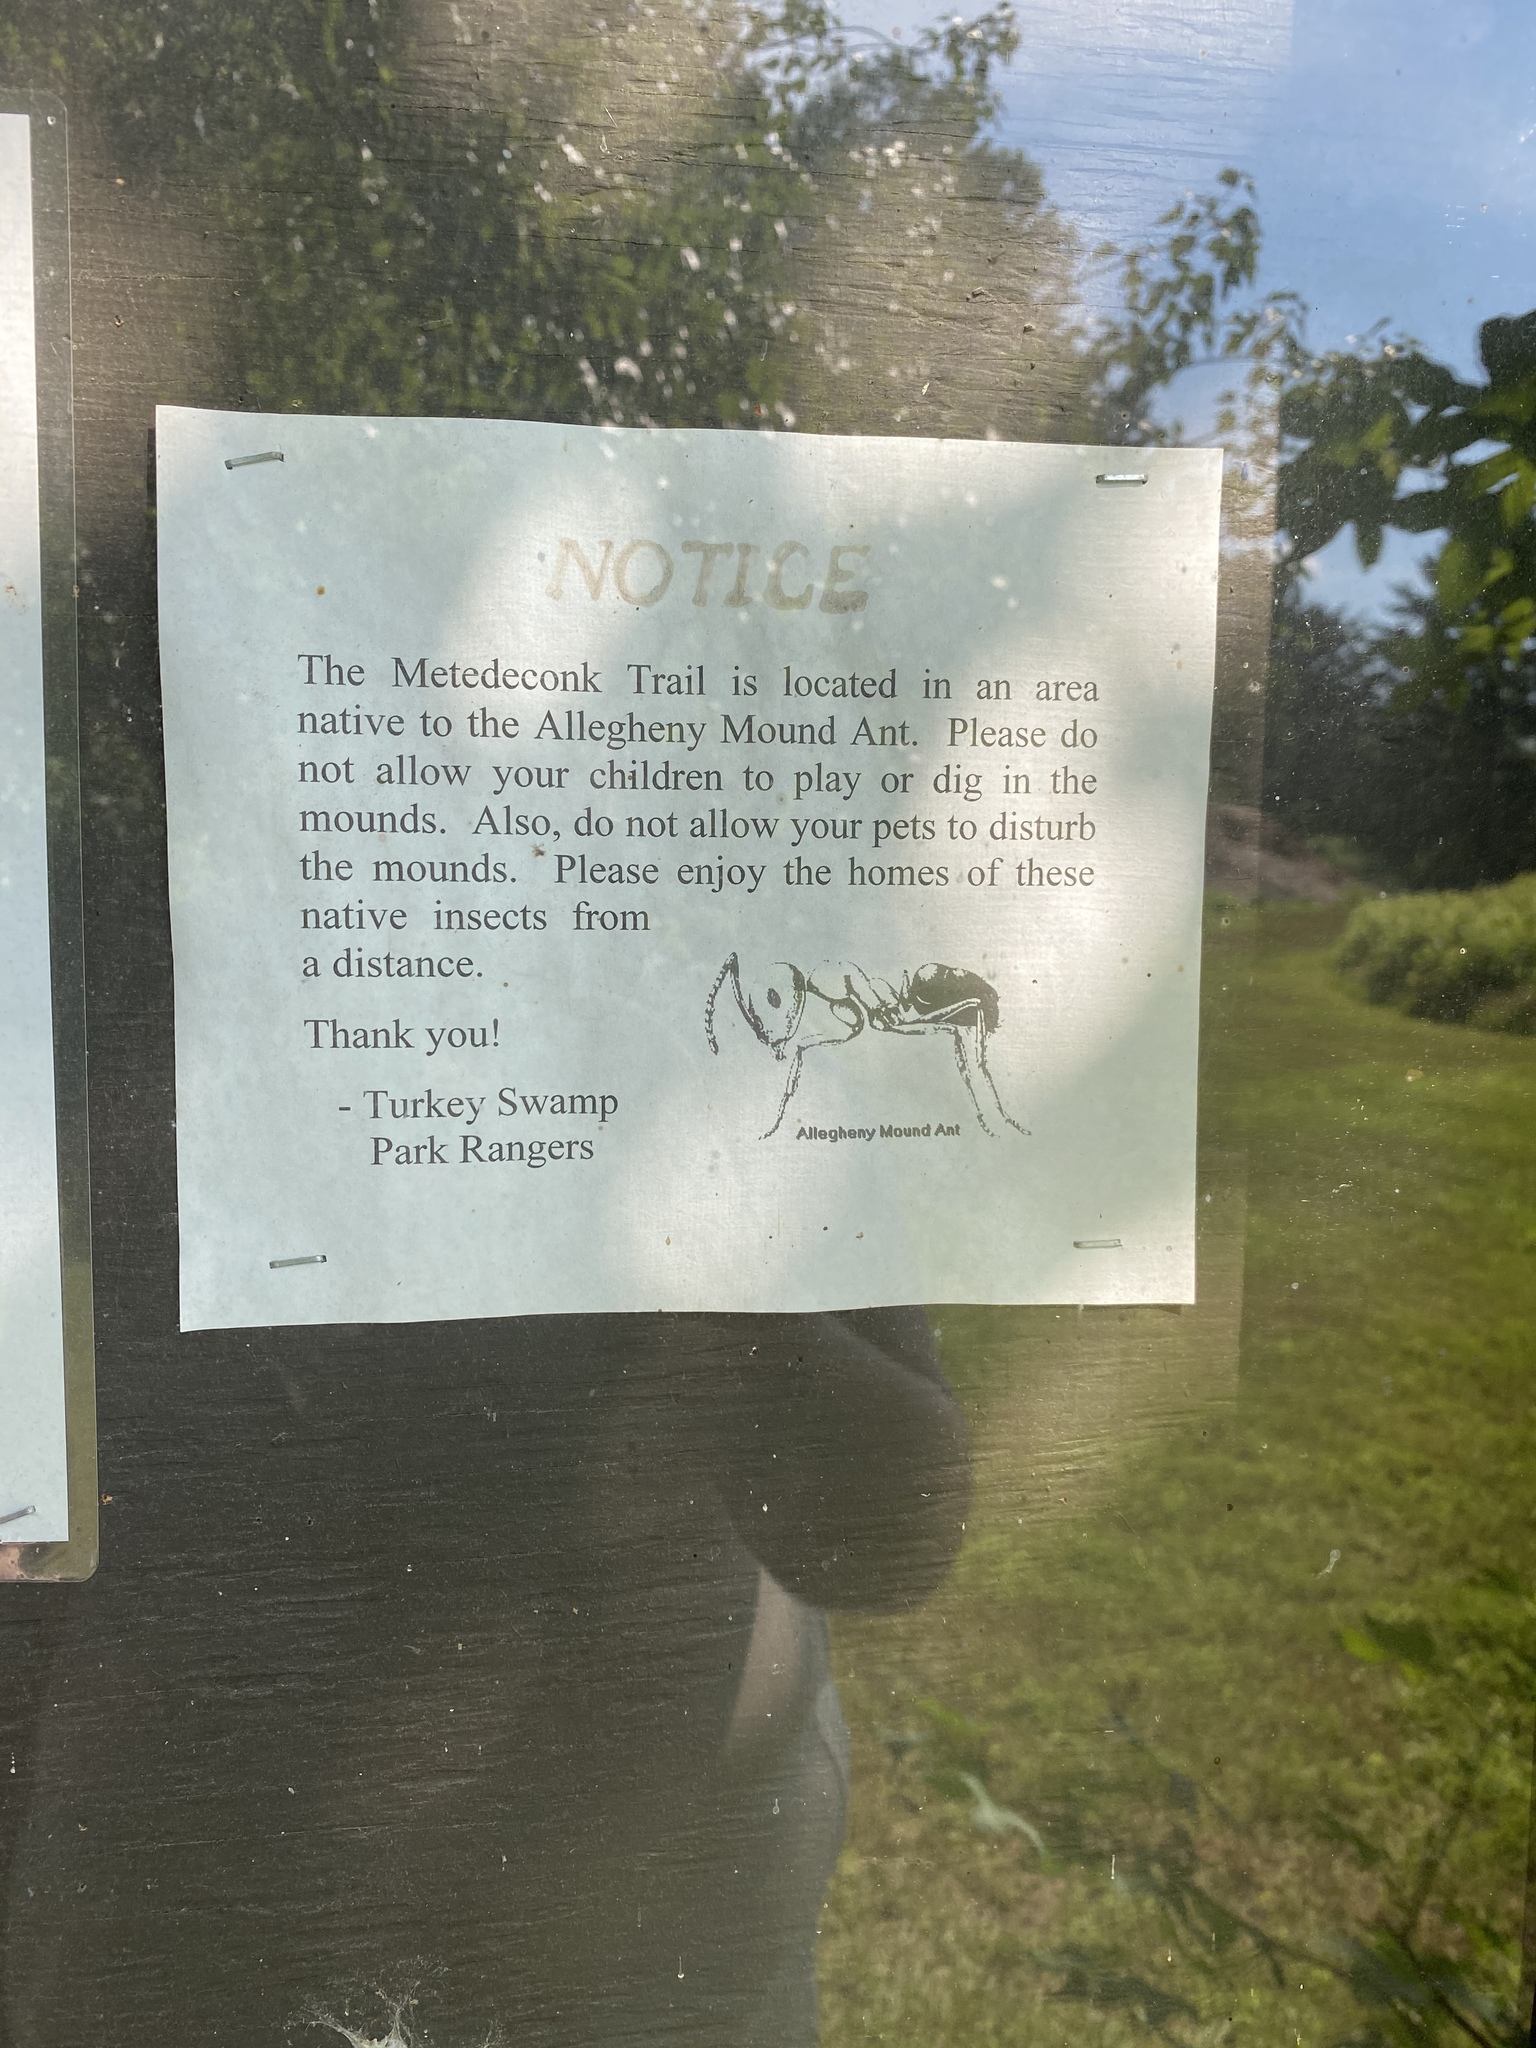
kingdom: Animalia
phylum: Arthropoda
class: Insecta
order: Hymenoptera
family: Formicidae
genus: Formica
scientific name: Formica exsectoides
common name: Allegheny mound ant
